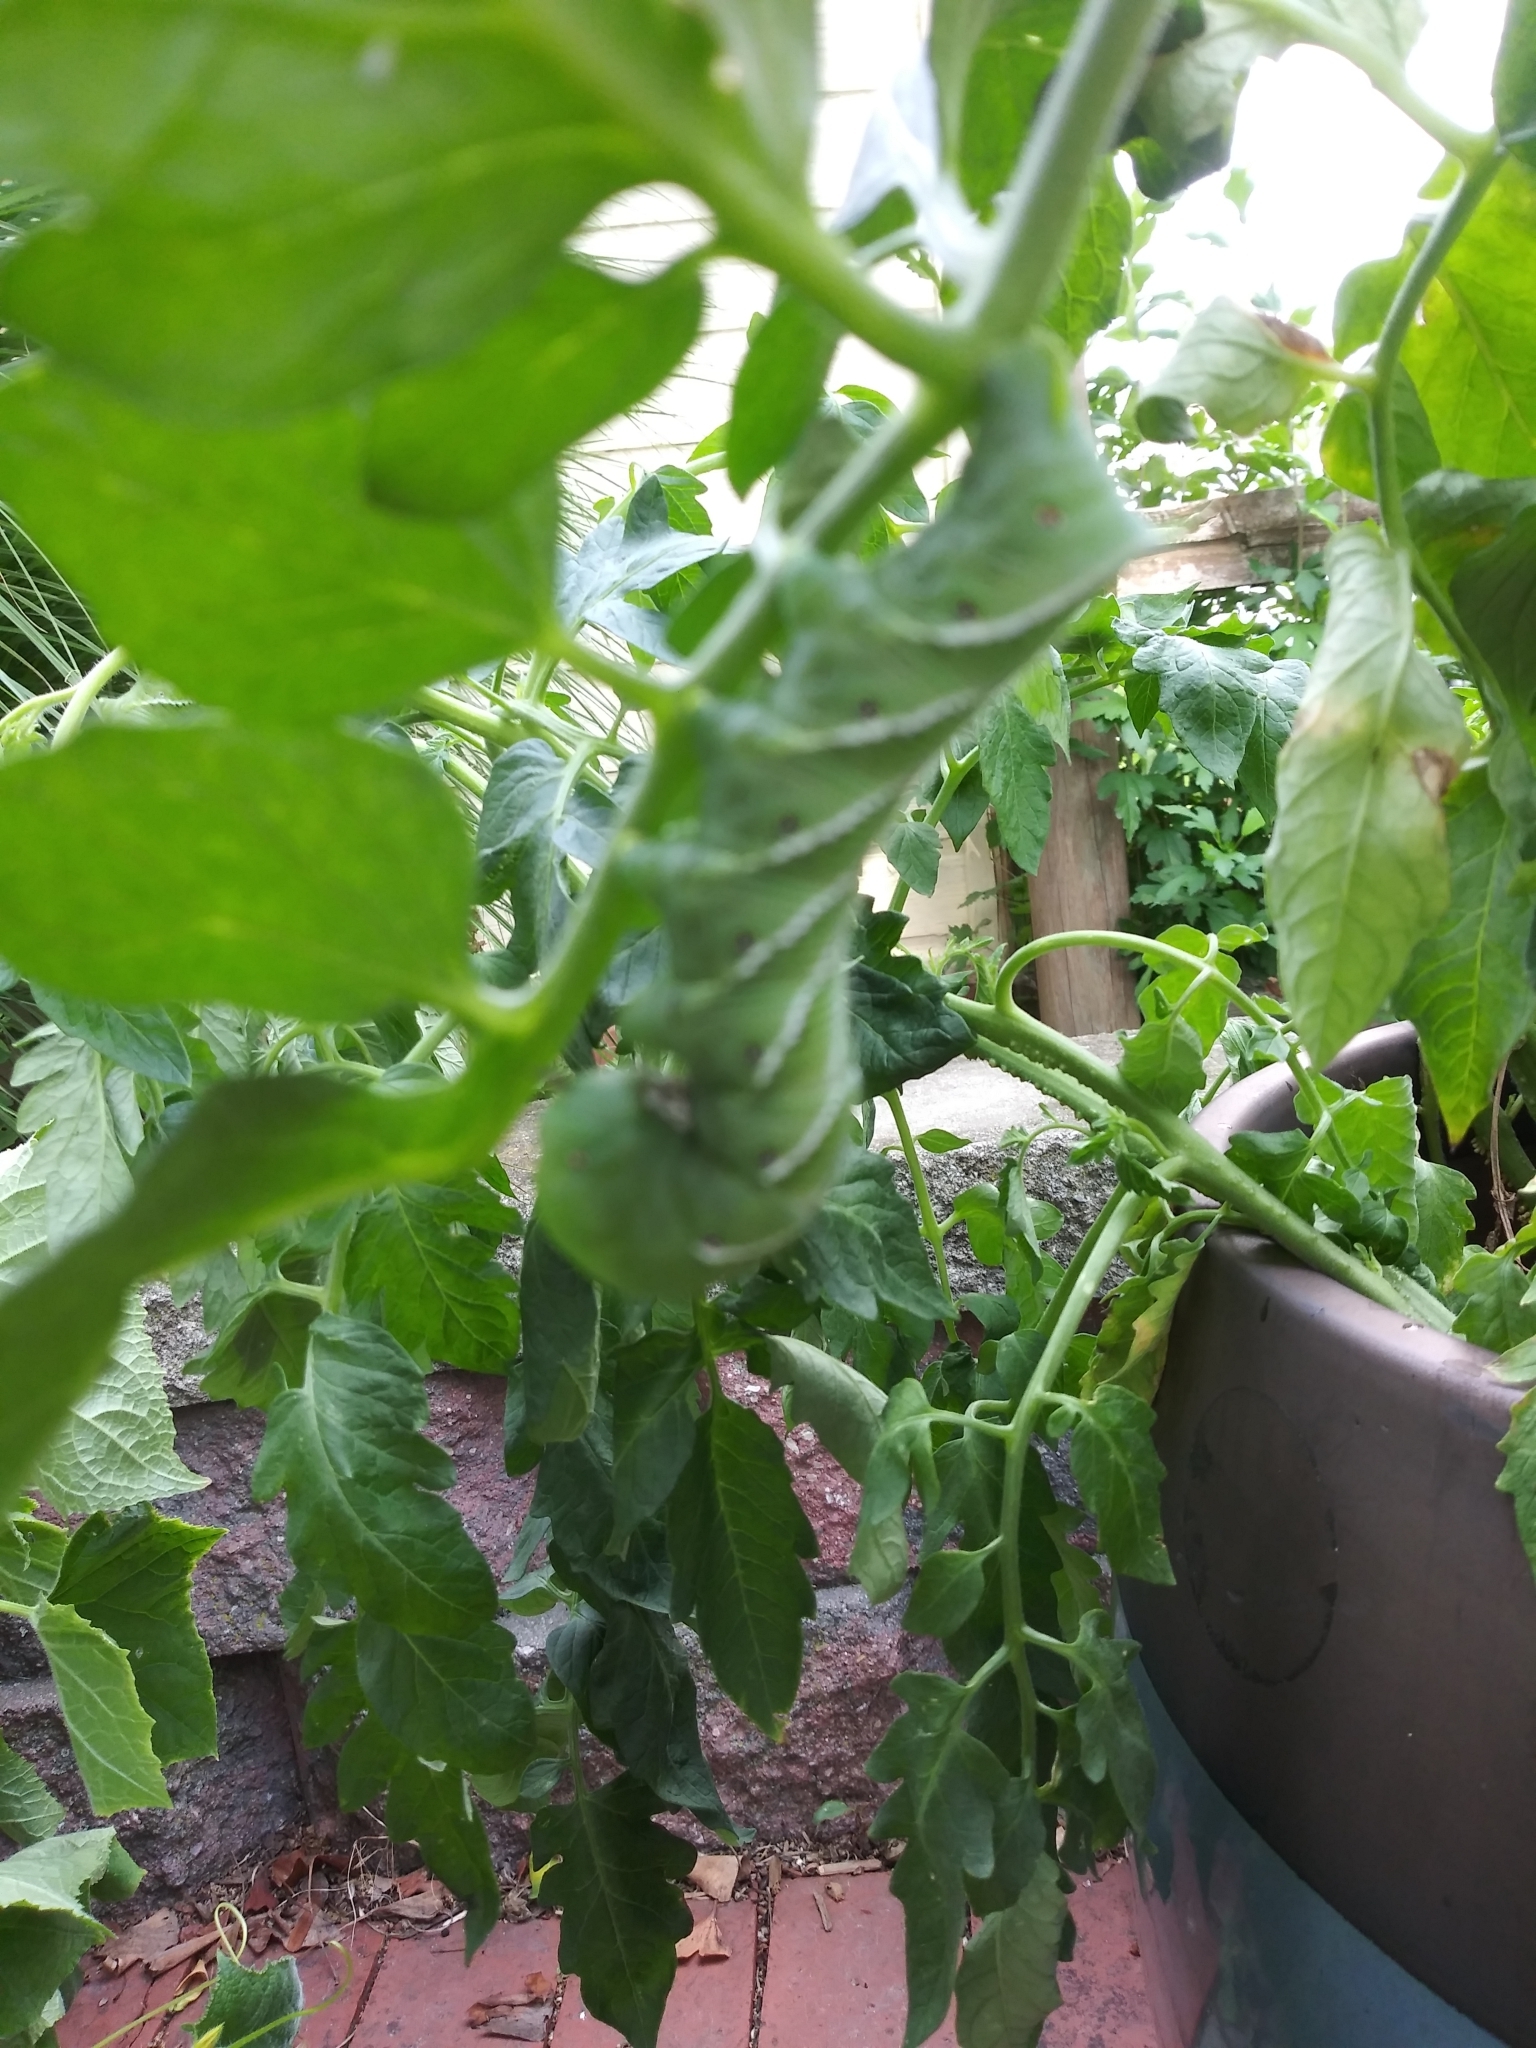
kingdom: Animalia
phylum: Arthropoda
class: Insecta
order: Lepidoptera
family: Sphingidae
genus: Manduca
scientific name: Manduca sexta
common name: Carolina sphinx
